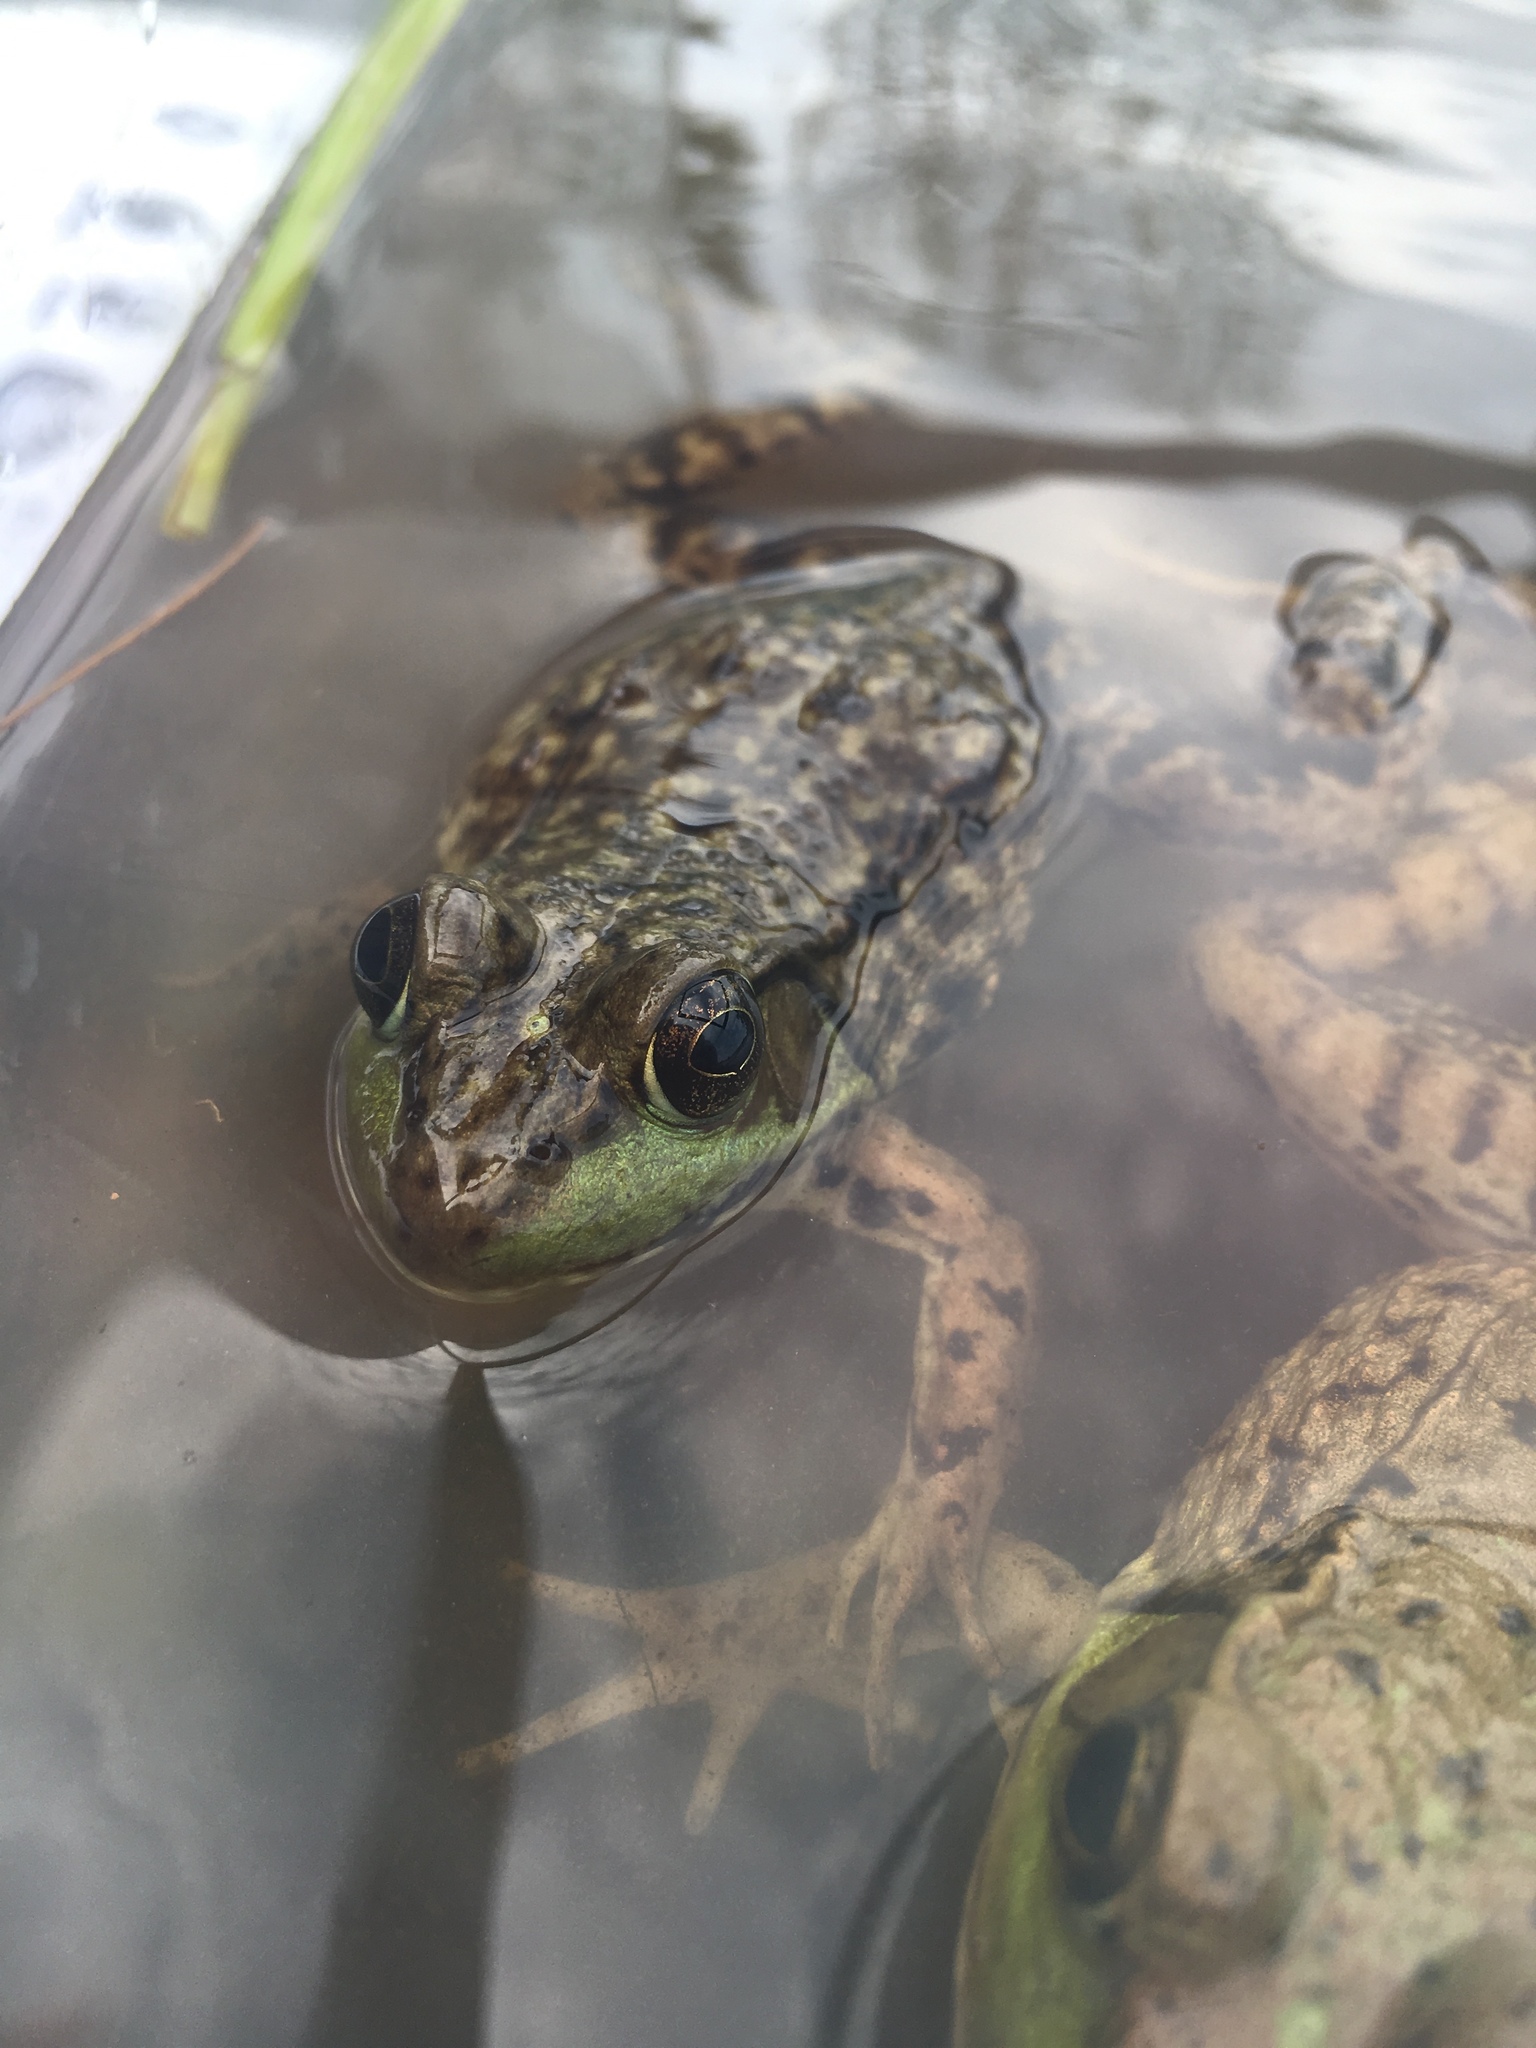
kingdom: Animalia
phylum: Chordata
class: Amphibia
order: Anura
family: Ranidae
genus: Lithobates
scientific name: Lithobates clamitans
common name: Green frog
